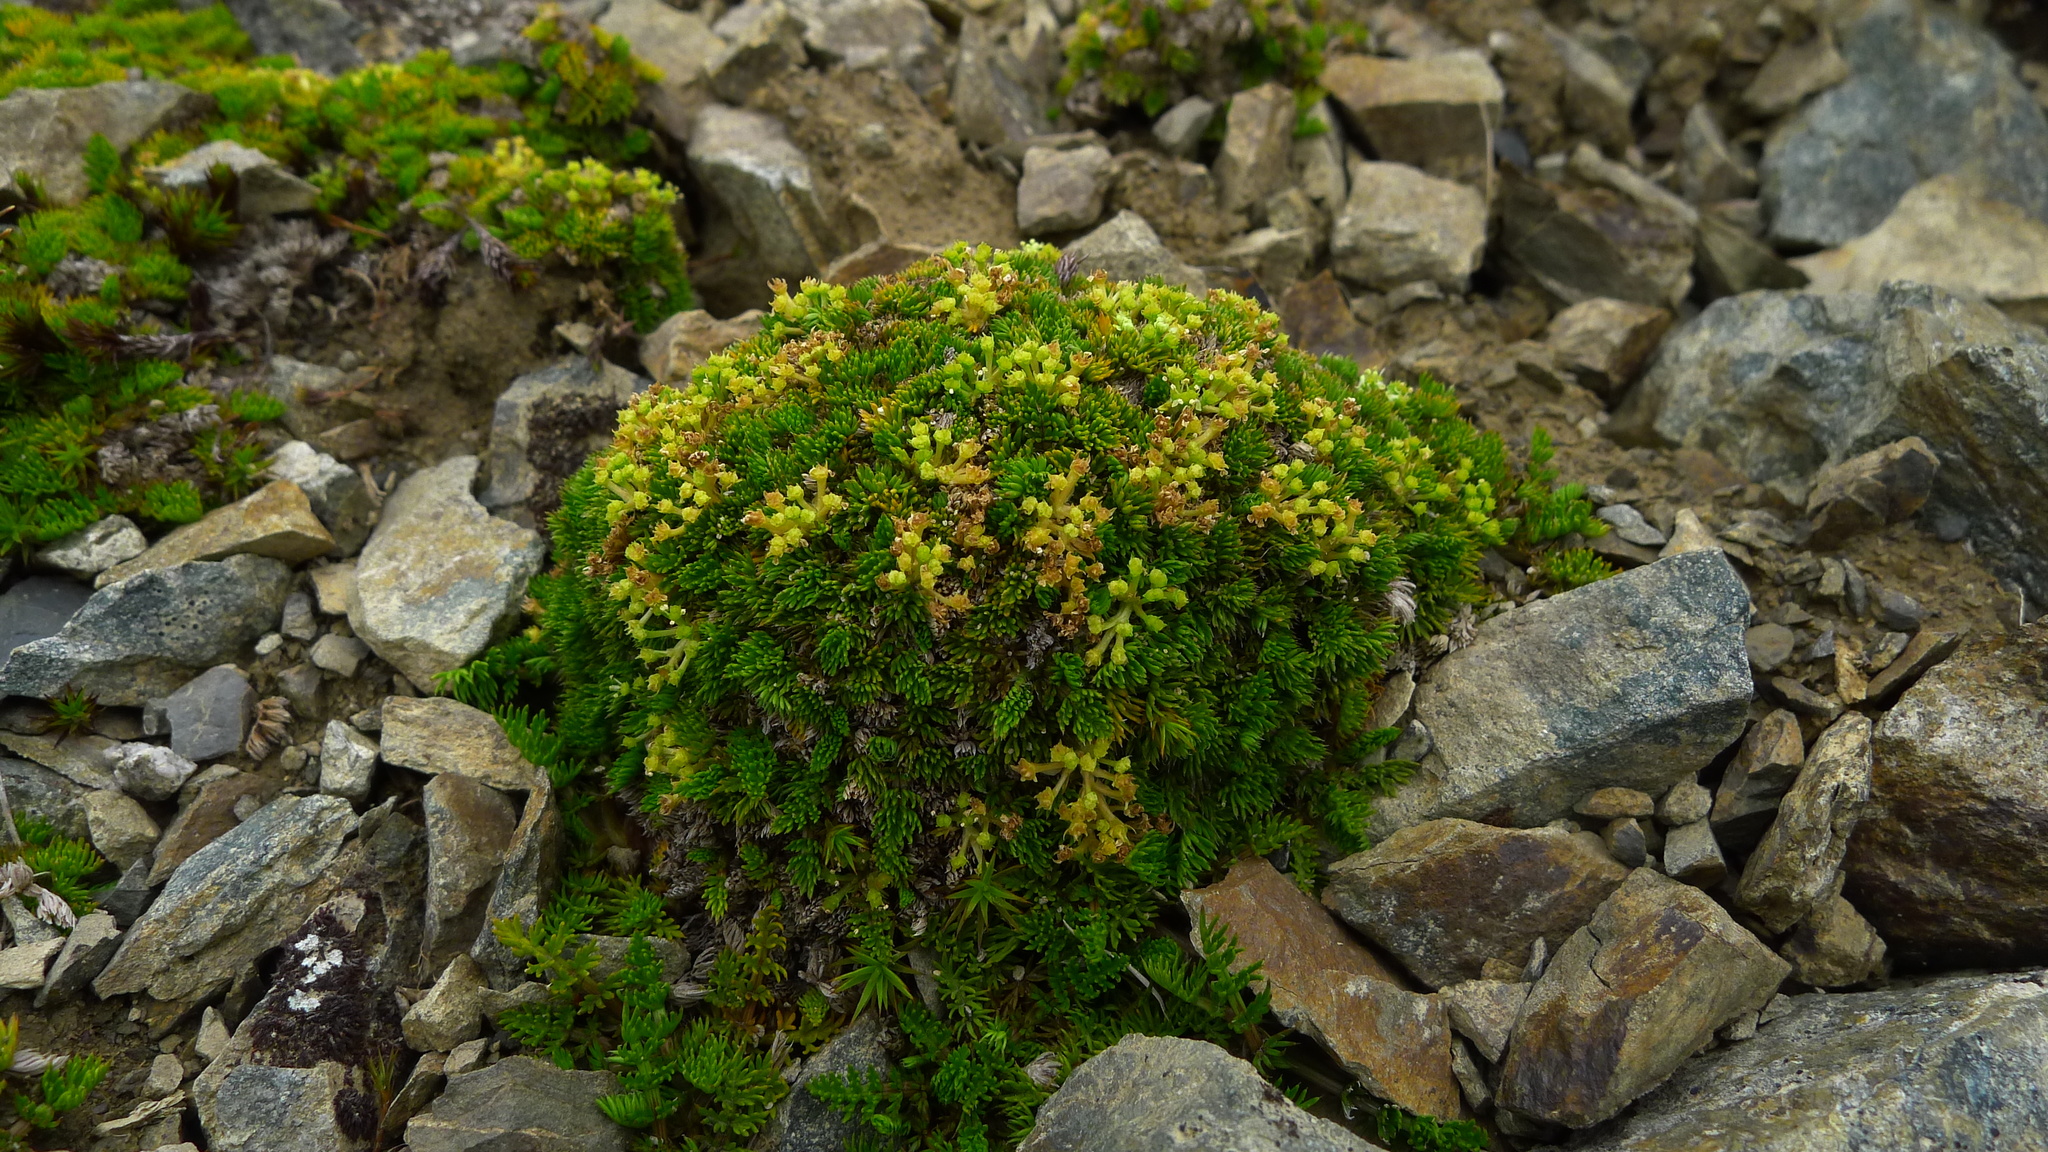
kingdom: Plantae
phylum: Tracheophyta
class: Magnoliopsida
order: Apiales
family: Apiaceae
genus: Anisotome
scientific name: Anisotome imbricata
